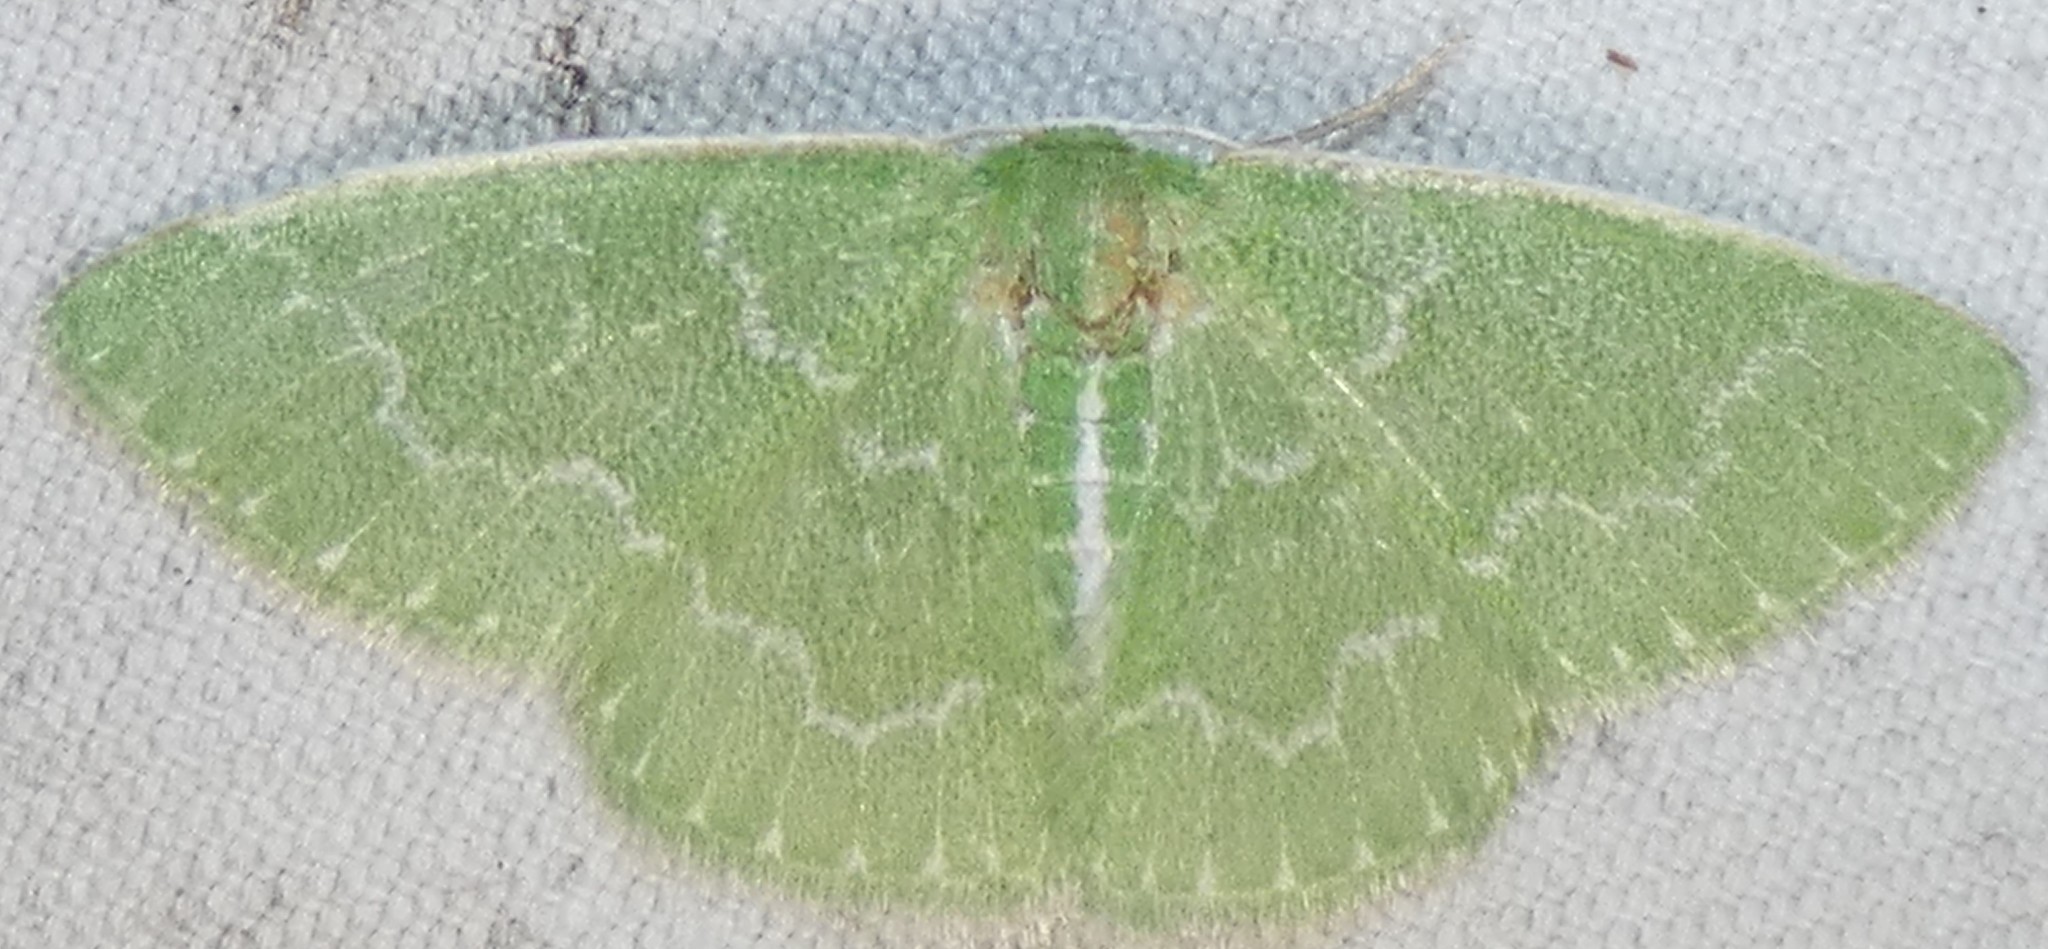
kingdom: Animalia
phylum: Arthropoda
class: Insecta
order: Lepidoptera
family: Geometridae
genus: Synchlora
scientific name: Synchlora frondaria
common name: Southern emerald
